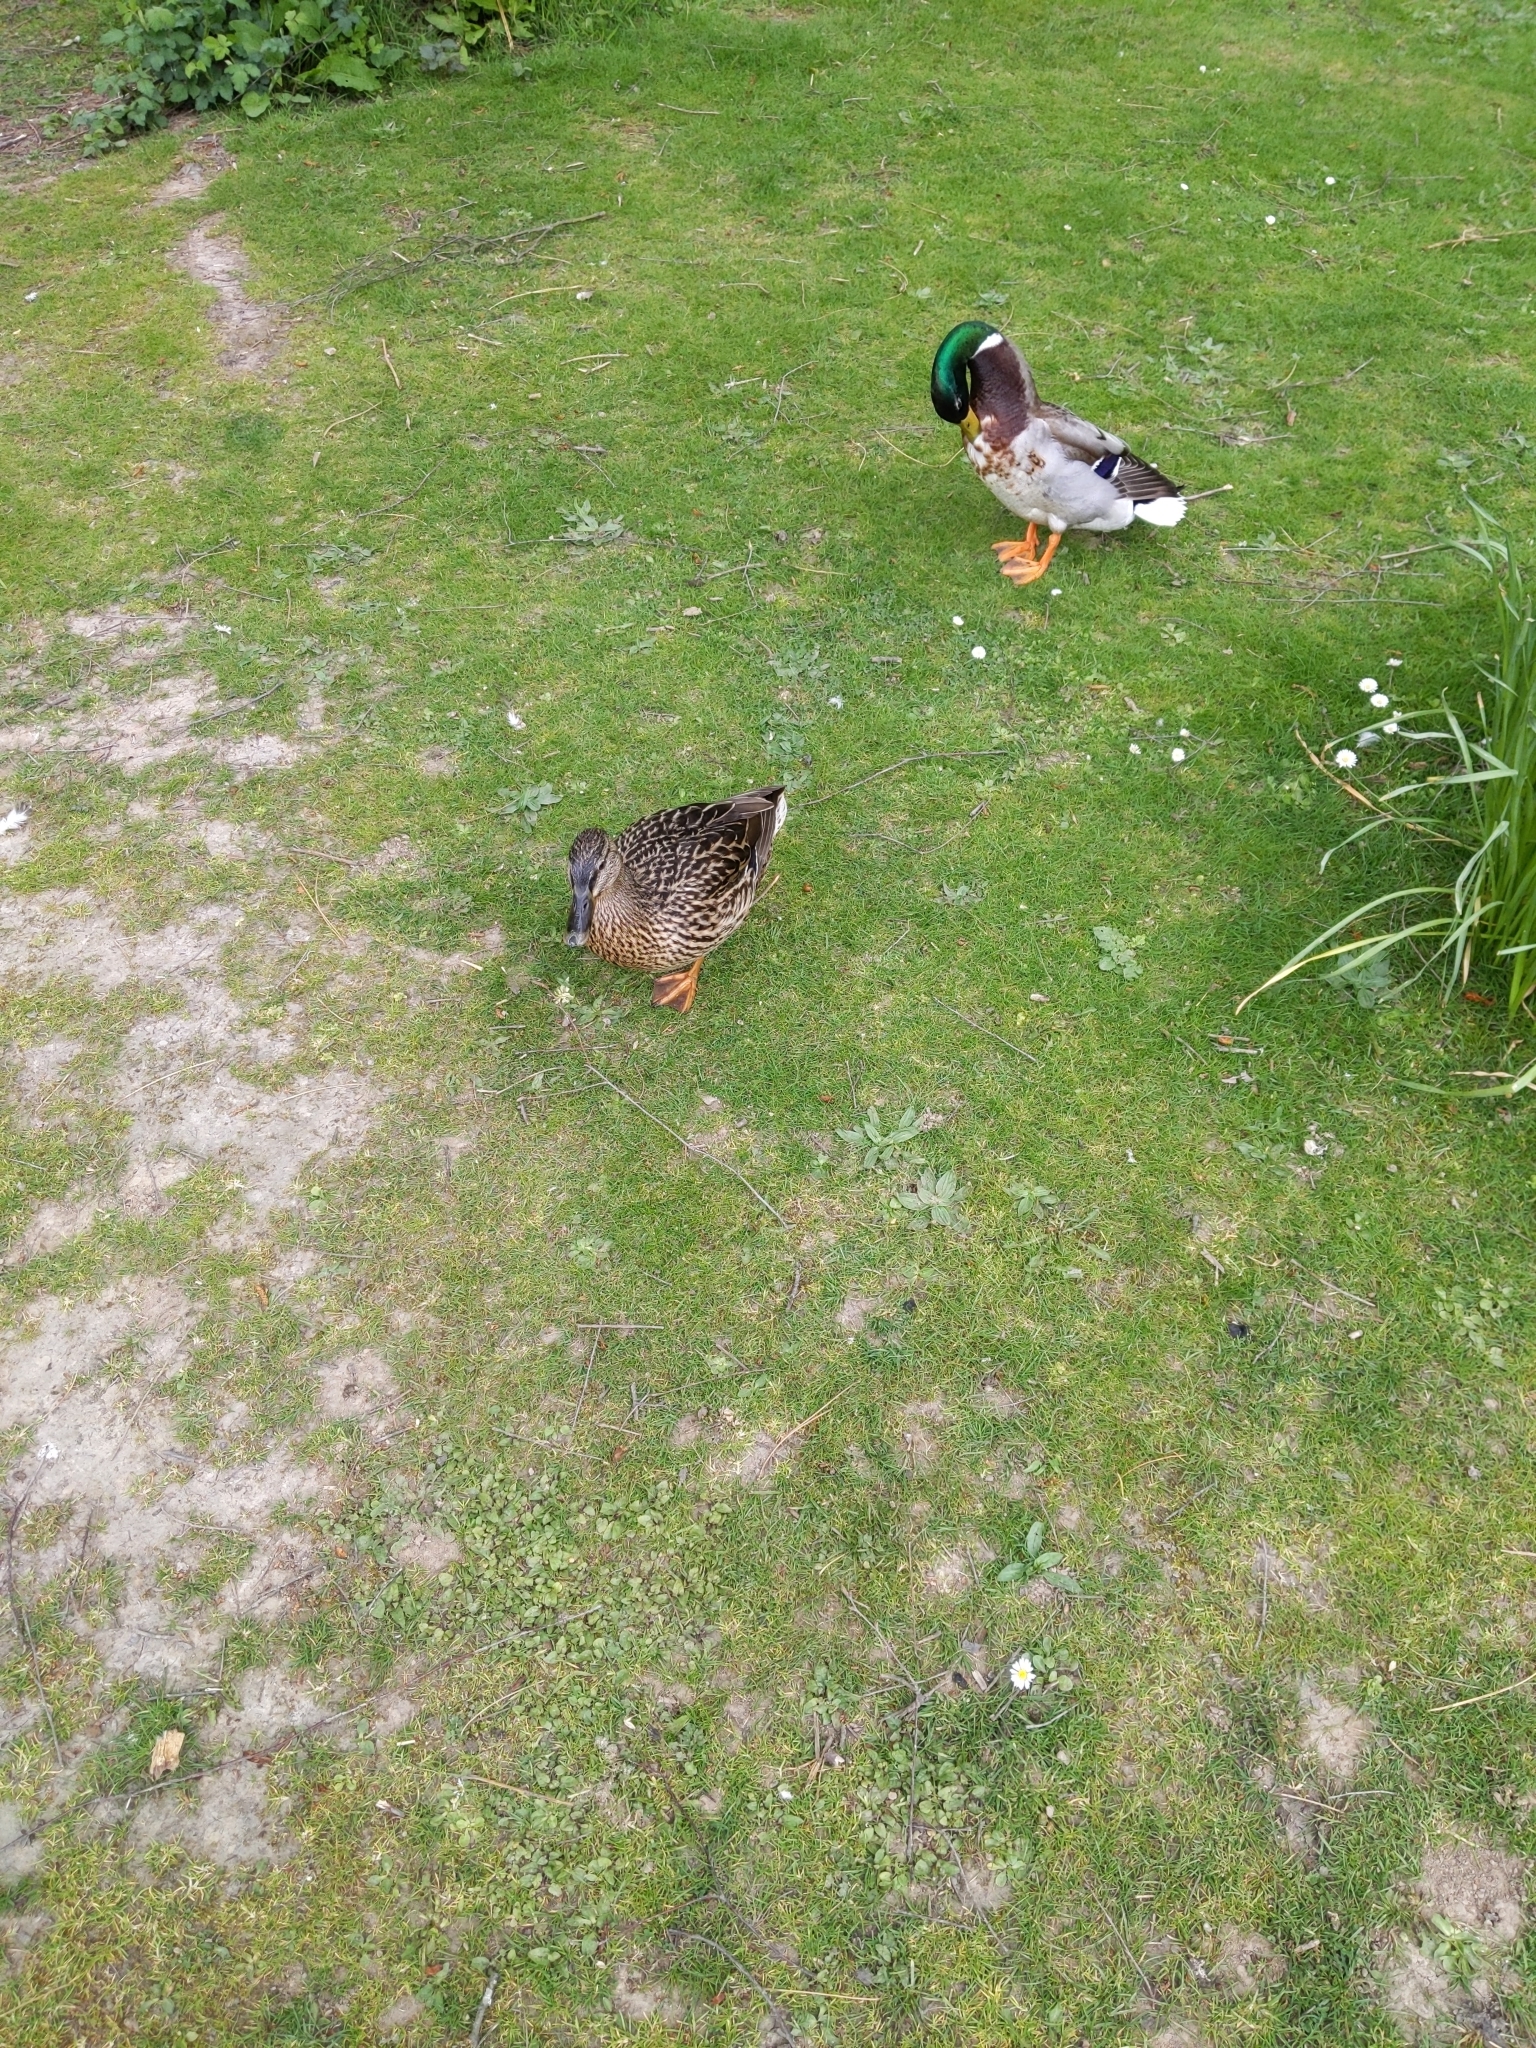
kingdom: Animalia
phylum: Chordata
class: Aves
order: Anseriformes
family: Anatidae
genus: Anas
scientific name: Anas platyrhynchos
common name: Mallard
